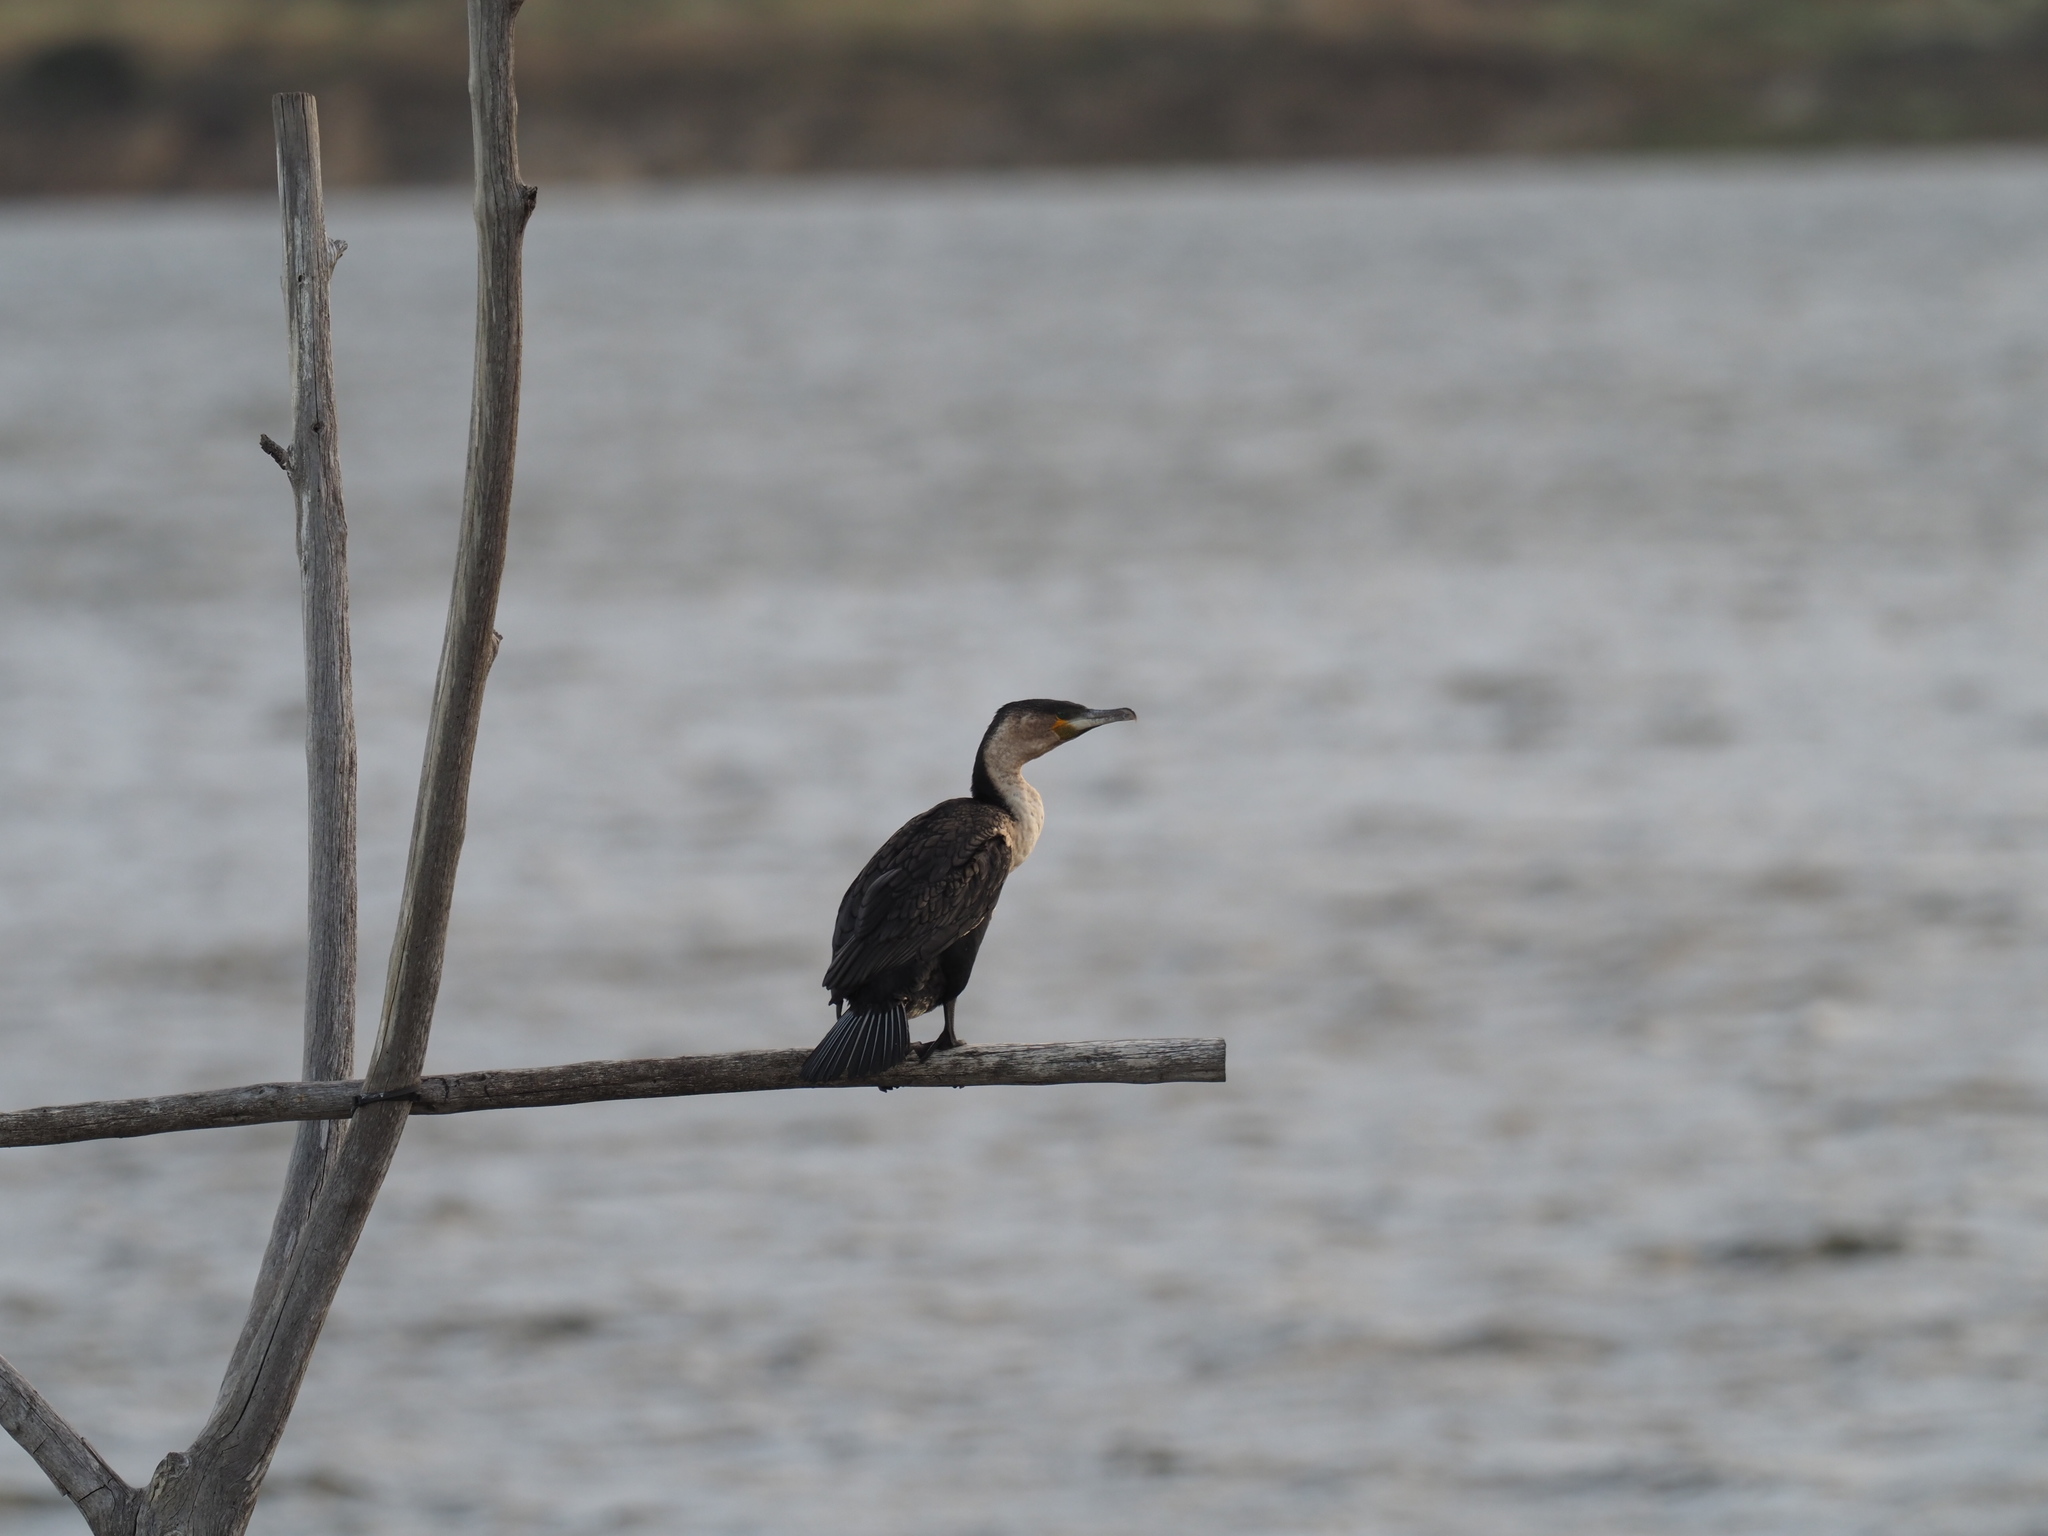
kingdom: Animalia
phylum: Chordata
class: Aves
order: Suliformes
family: Phalacrocoracidae
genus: Phalacrocorax
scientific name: Phalacrocorax carbo
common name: Great cormorant
